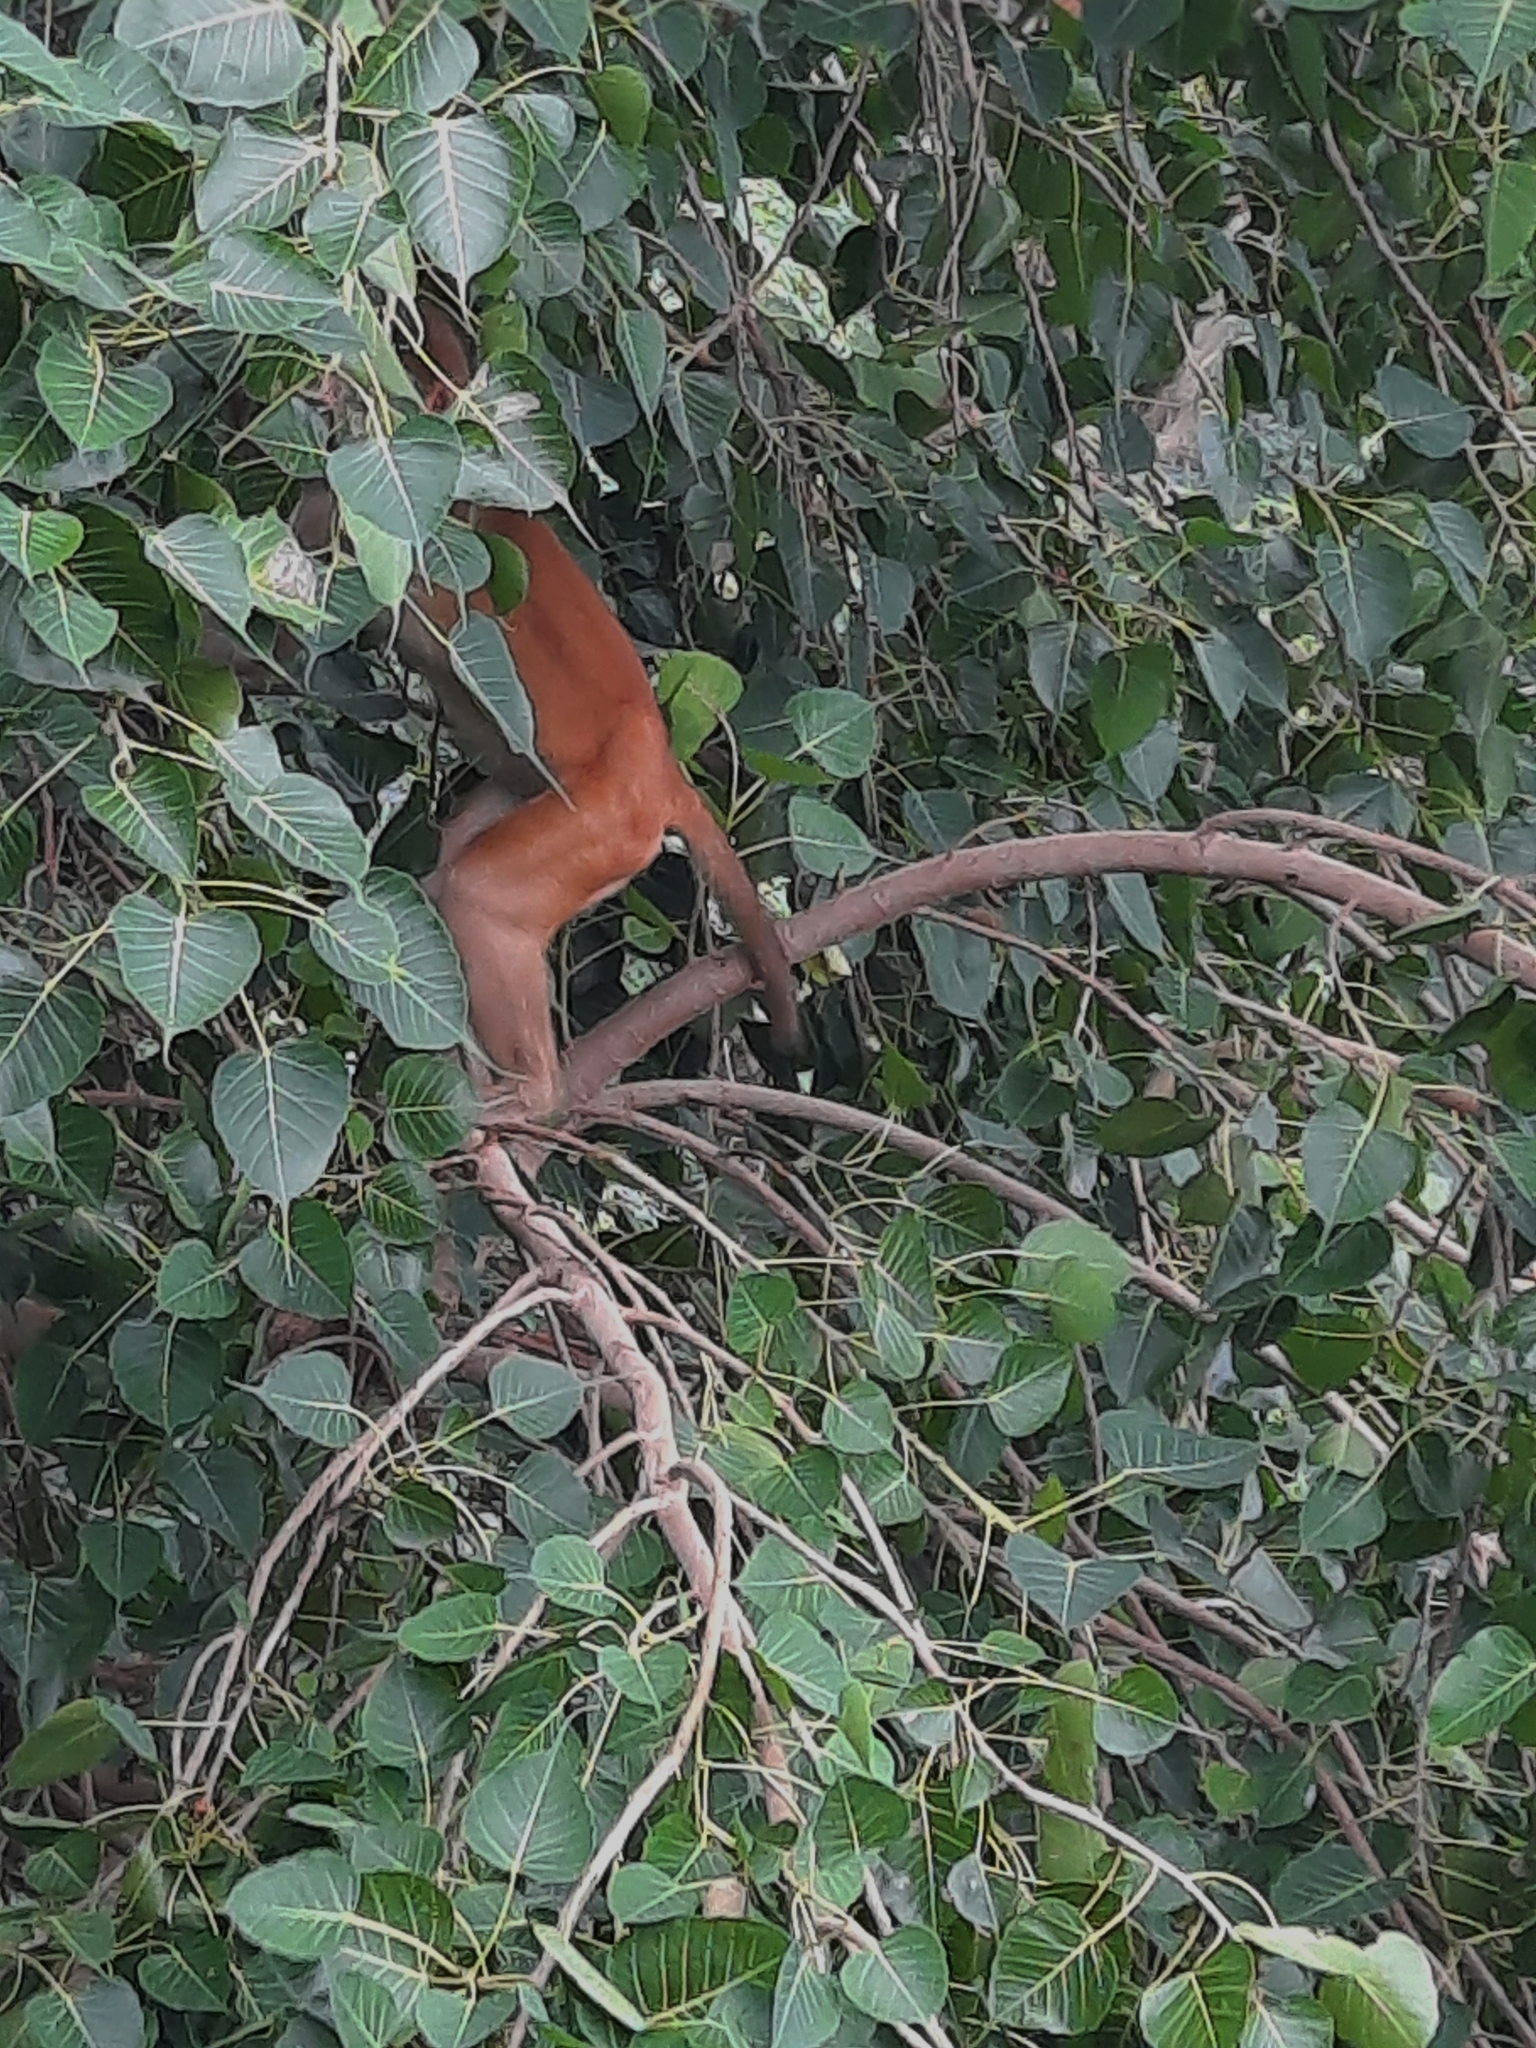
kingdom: Animalia
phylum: Chordata
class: Mammalia
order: Primates
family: Cercopithecidae
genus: Macaca
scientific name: Macaca mulatta
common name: Rhesus monkey
